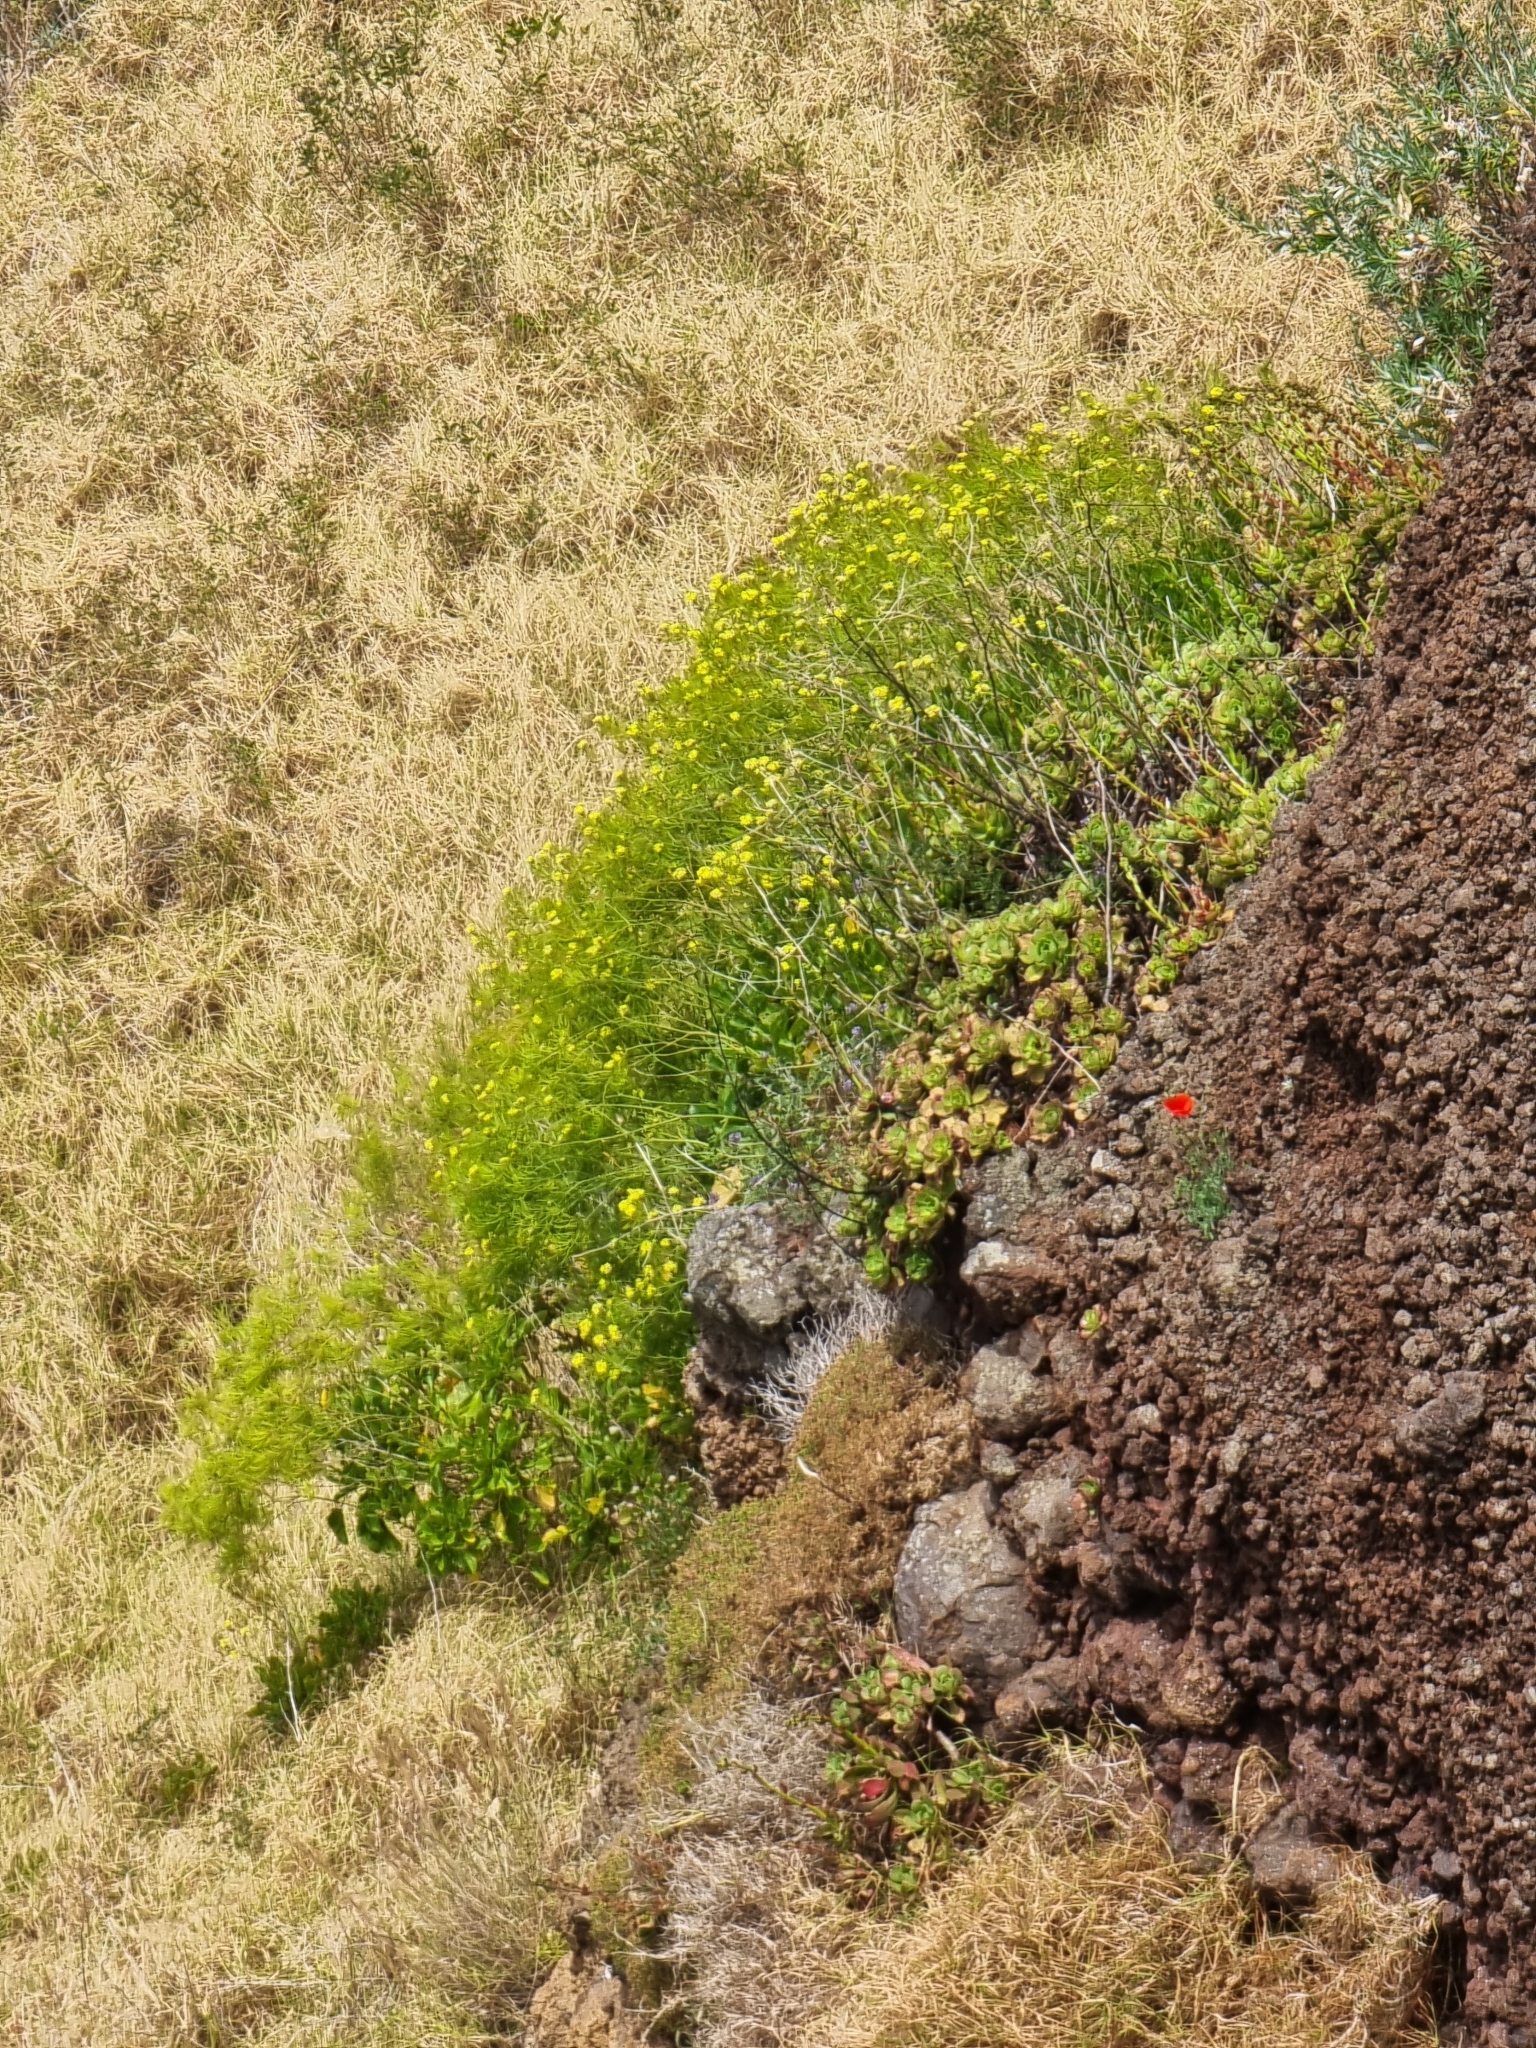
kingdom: Plantae
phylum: Tracheophyta
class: Magnoliopsida
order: Brassicales
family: Brassicaceae
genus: Sinapidendron
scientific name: Sinapidendron rupestre
